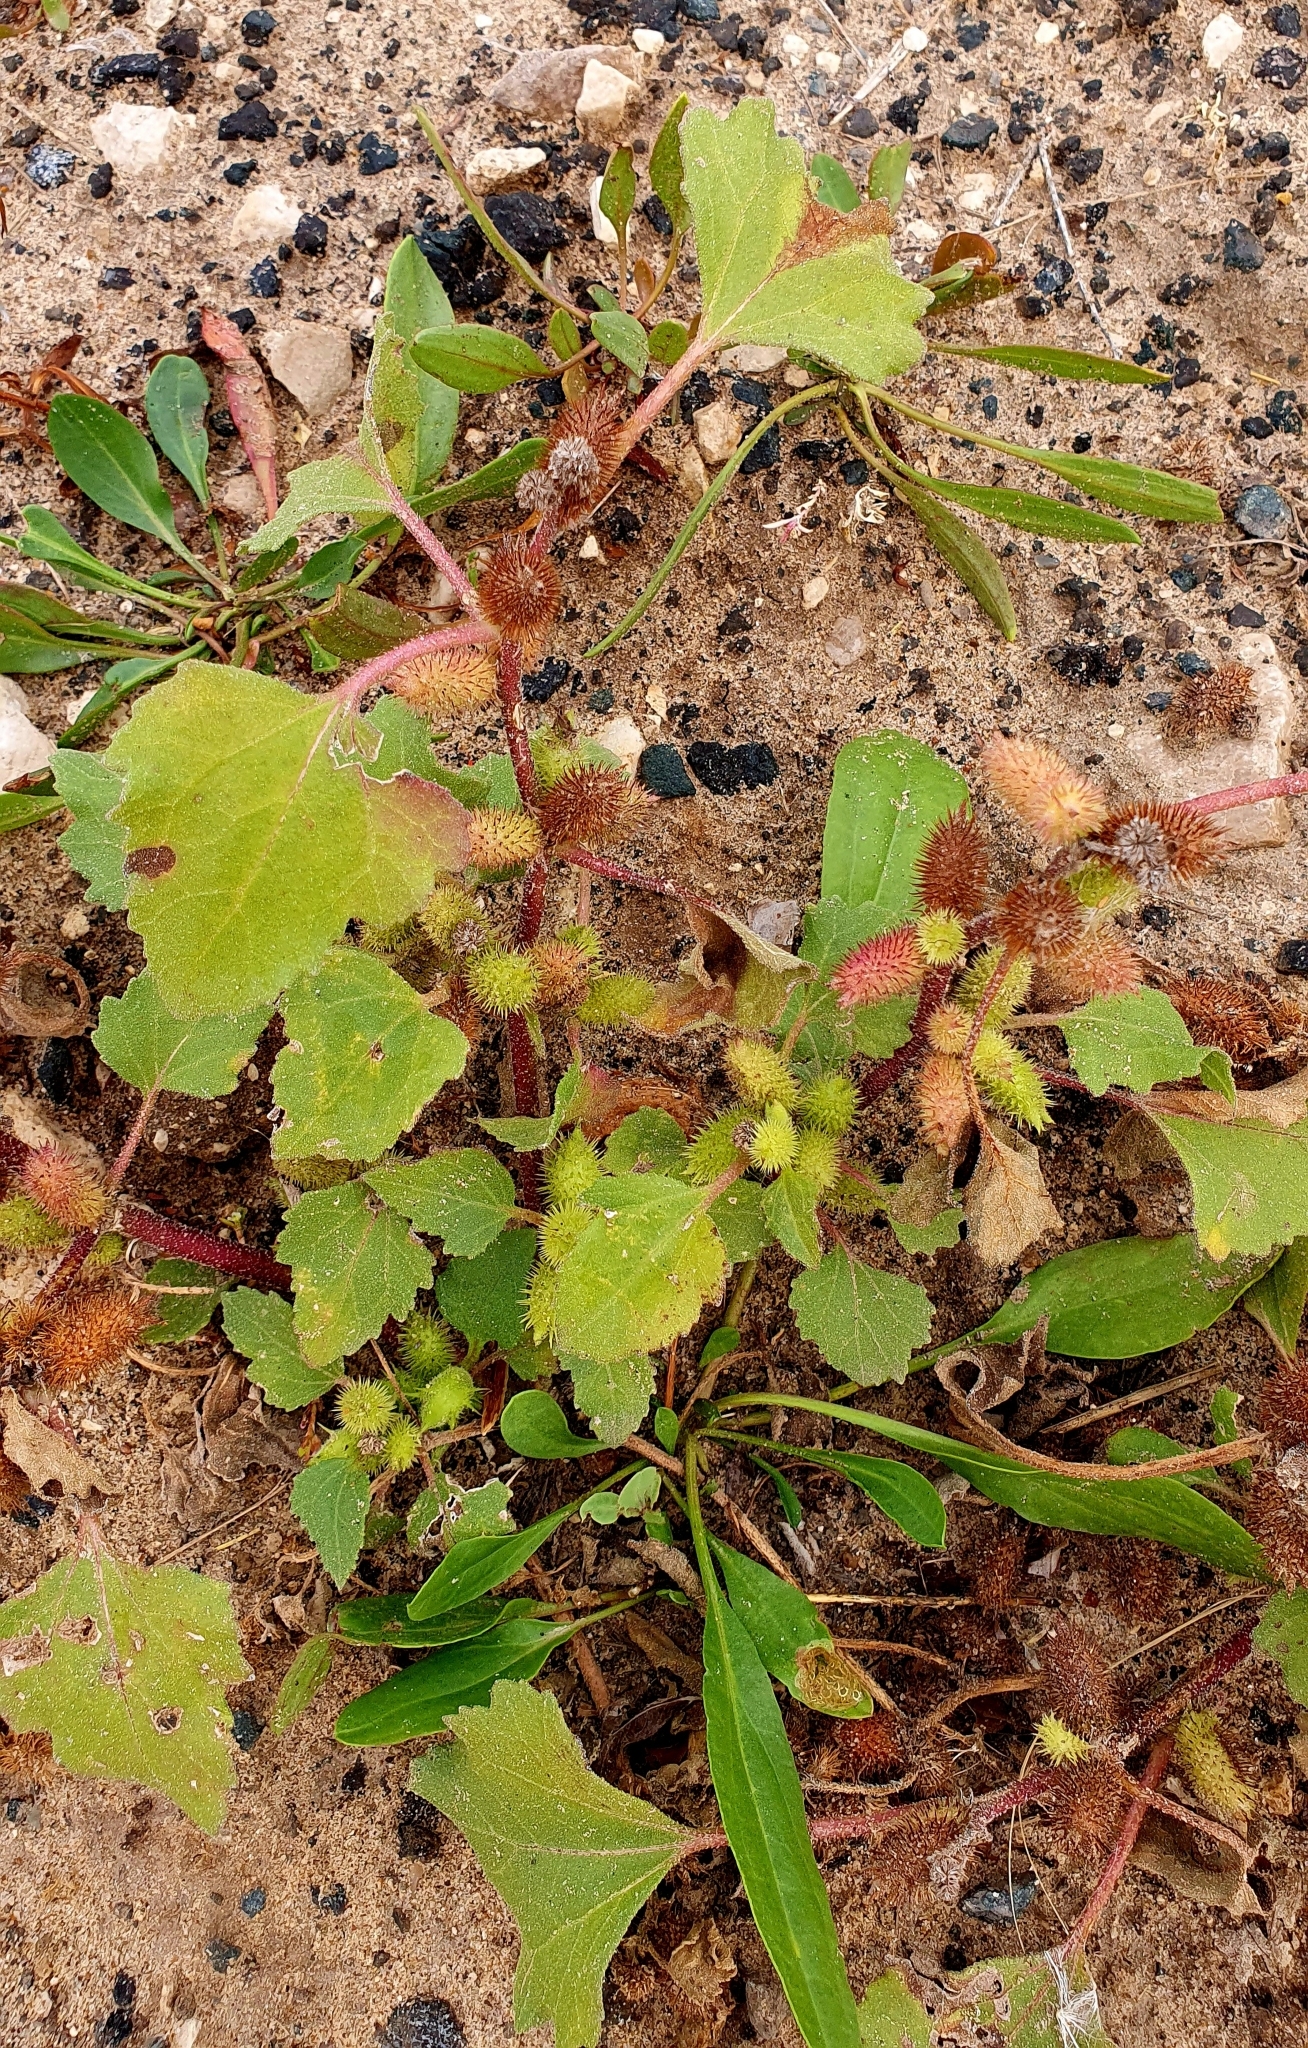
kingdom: Plantae
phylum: Tracheophyta
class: Magnoliopsida
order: Asterales
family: Asteraceae
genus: Xanthium
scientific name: Xanthium orientale
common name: Californian burr
